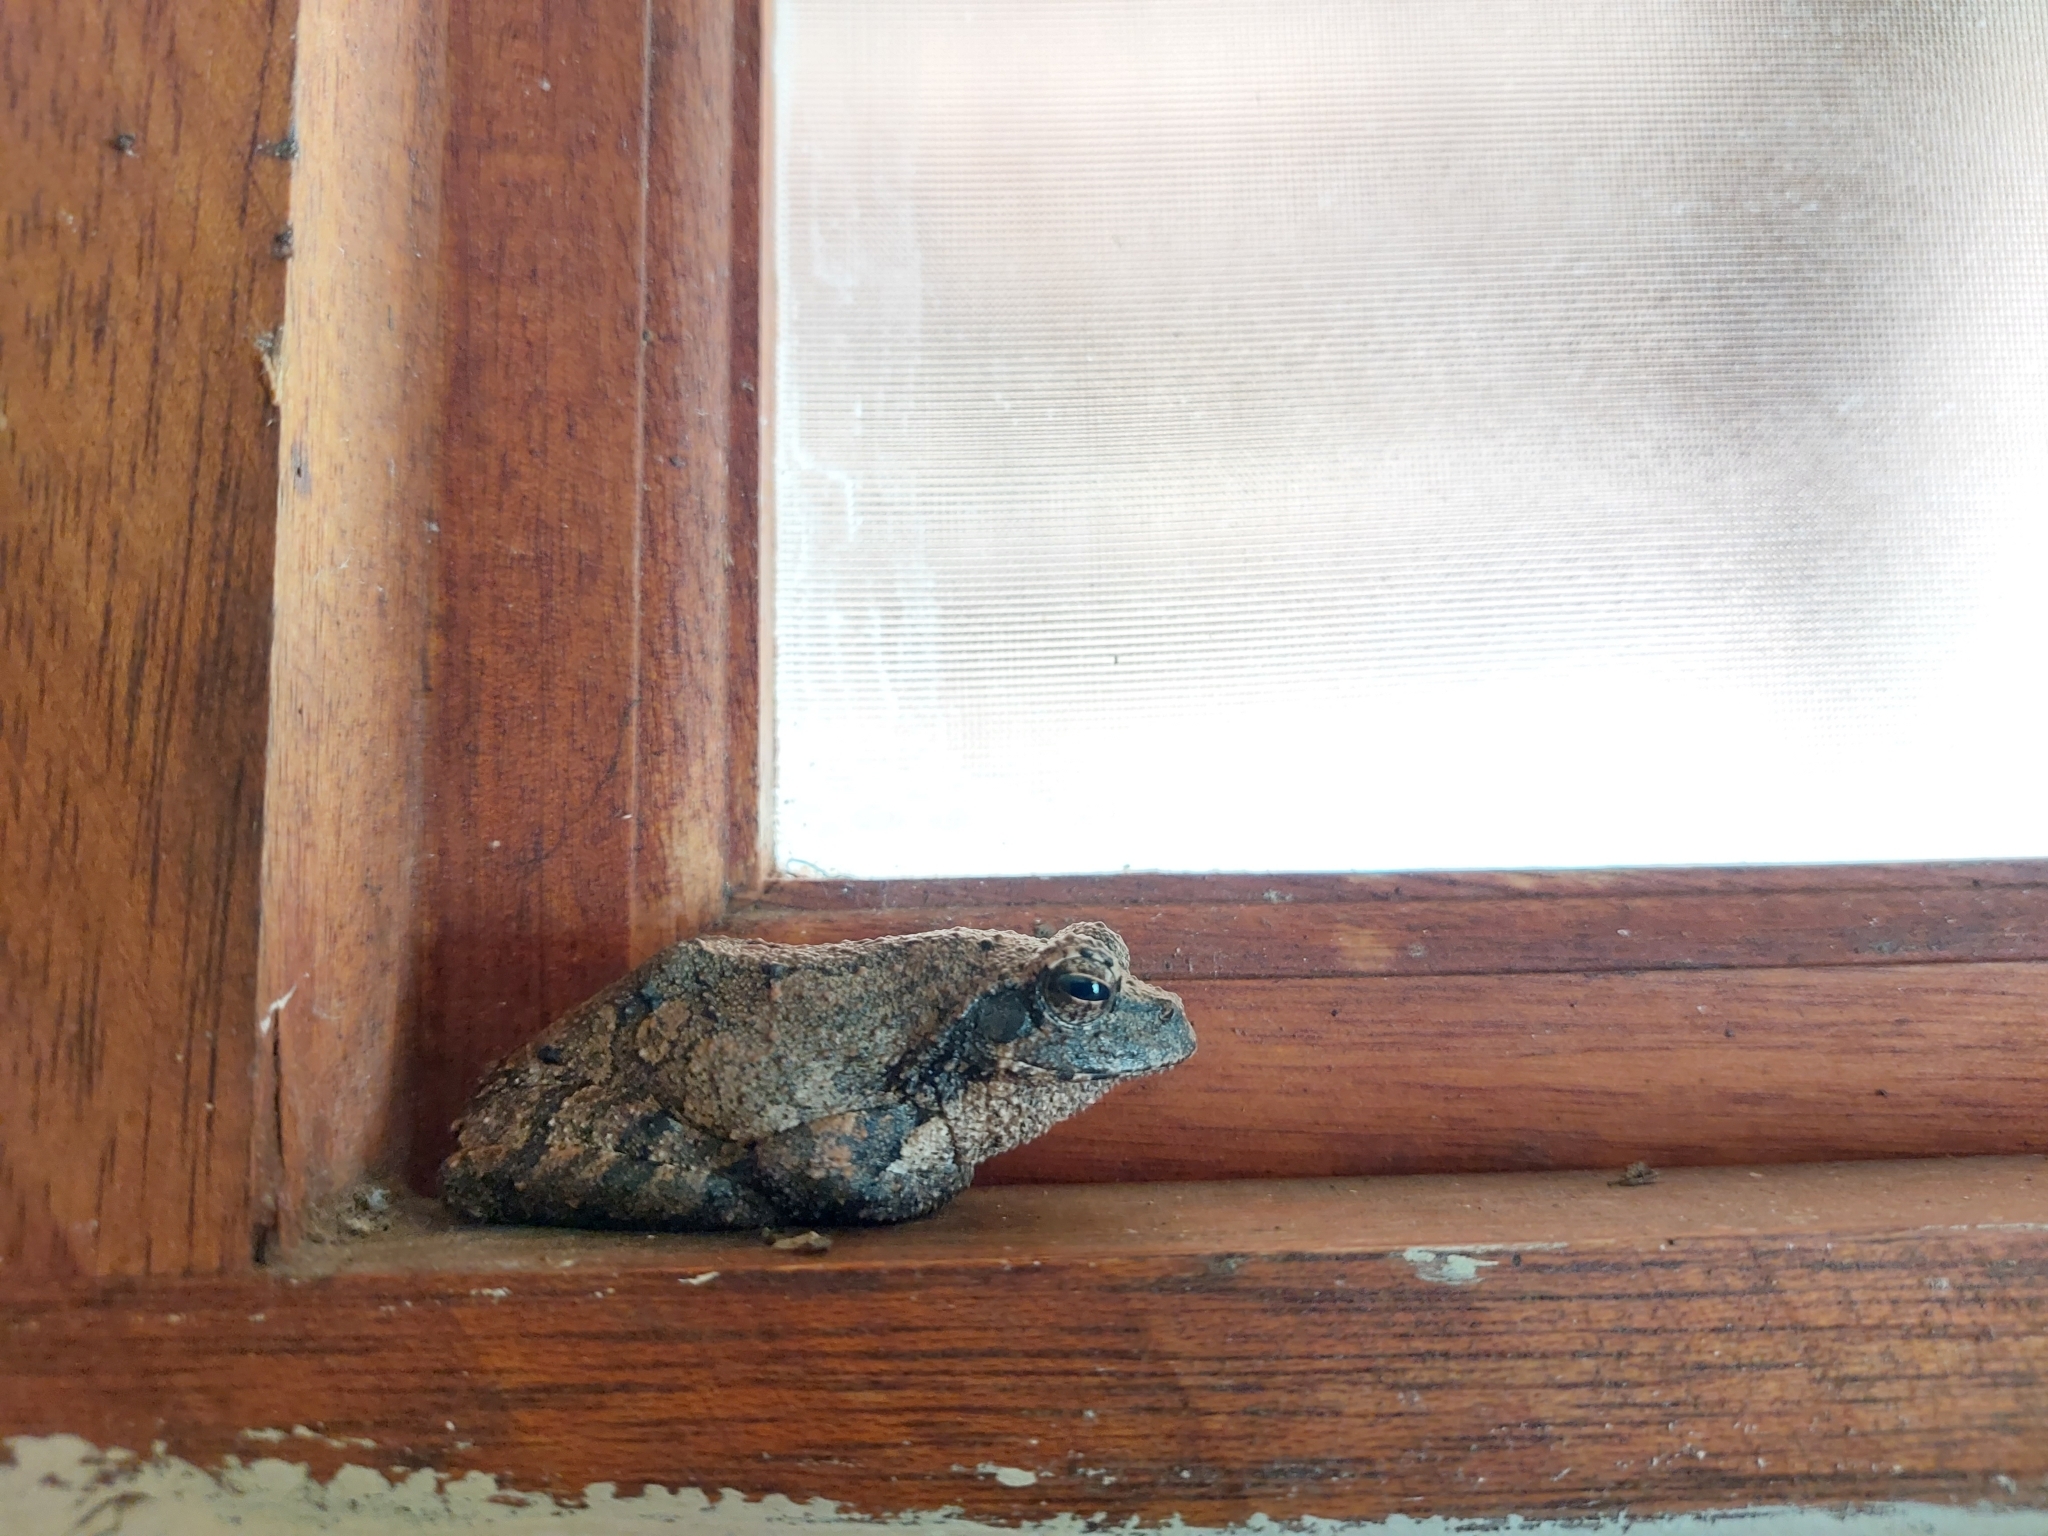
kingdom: Animalia
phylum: Chordata
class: Amphibia
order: Anura
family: Rhacophoridae
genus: Chiromantis
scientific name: Chiromantis xerampelina
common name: African gray treefrog
